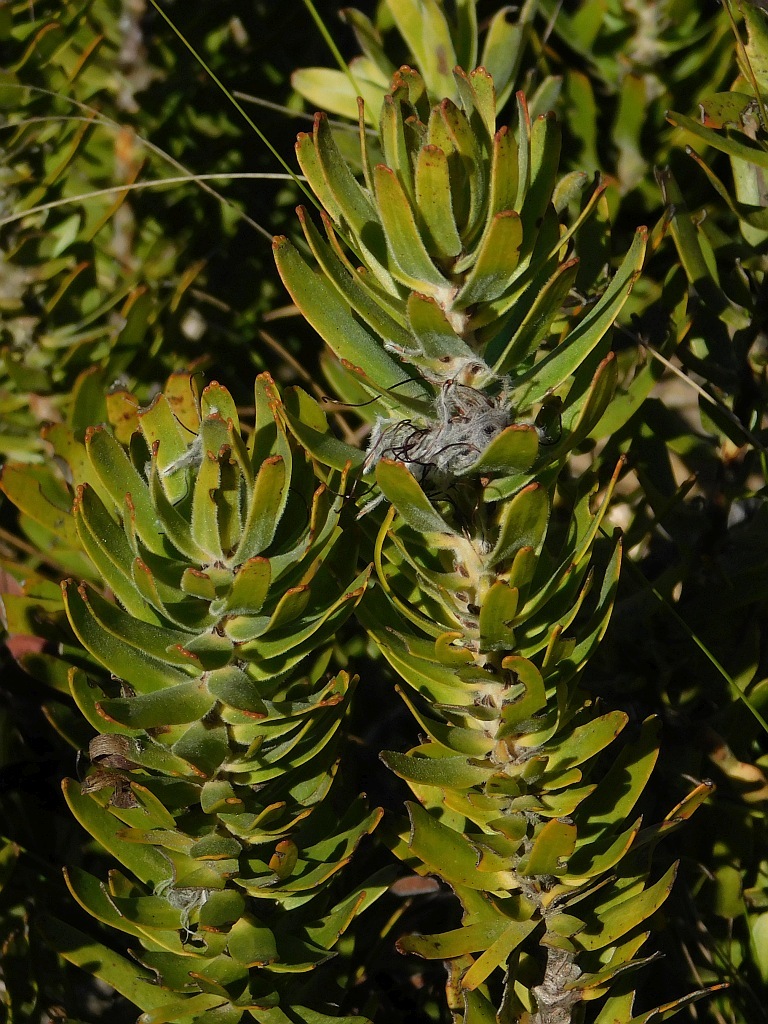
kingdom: Plantae
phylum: Tracheophyta
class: Magnoliopsida
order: Proteales
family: Proteaceae
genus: Mimetes
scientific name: Mimetes cucullatus
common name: Common pagoda
